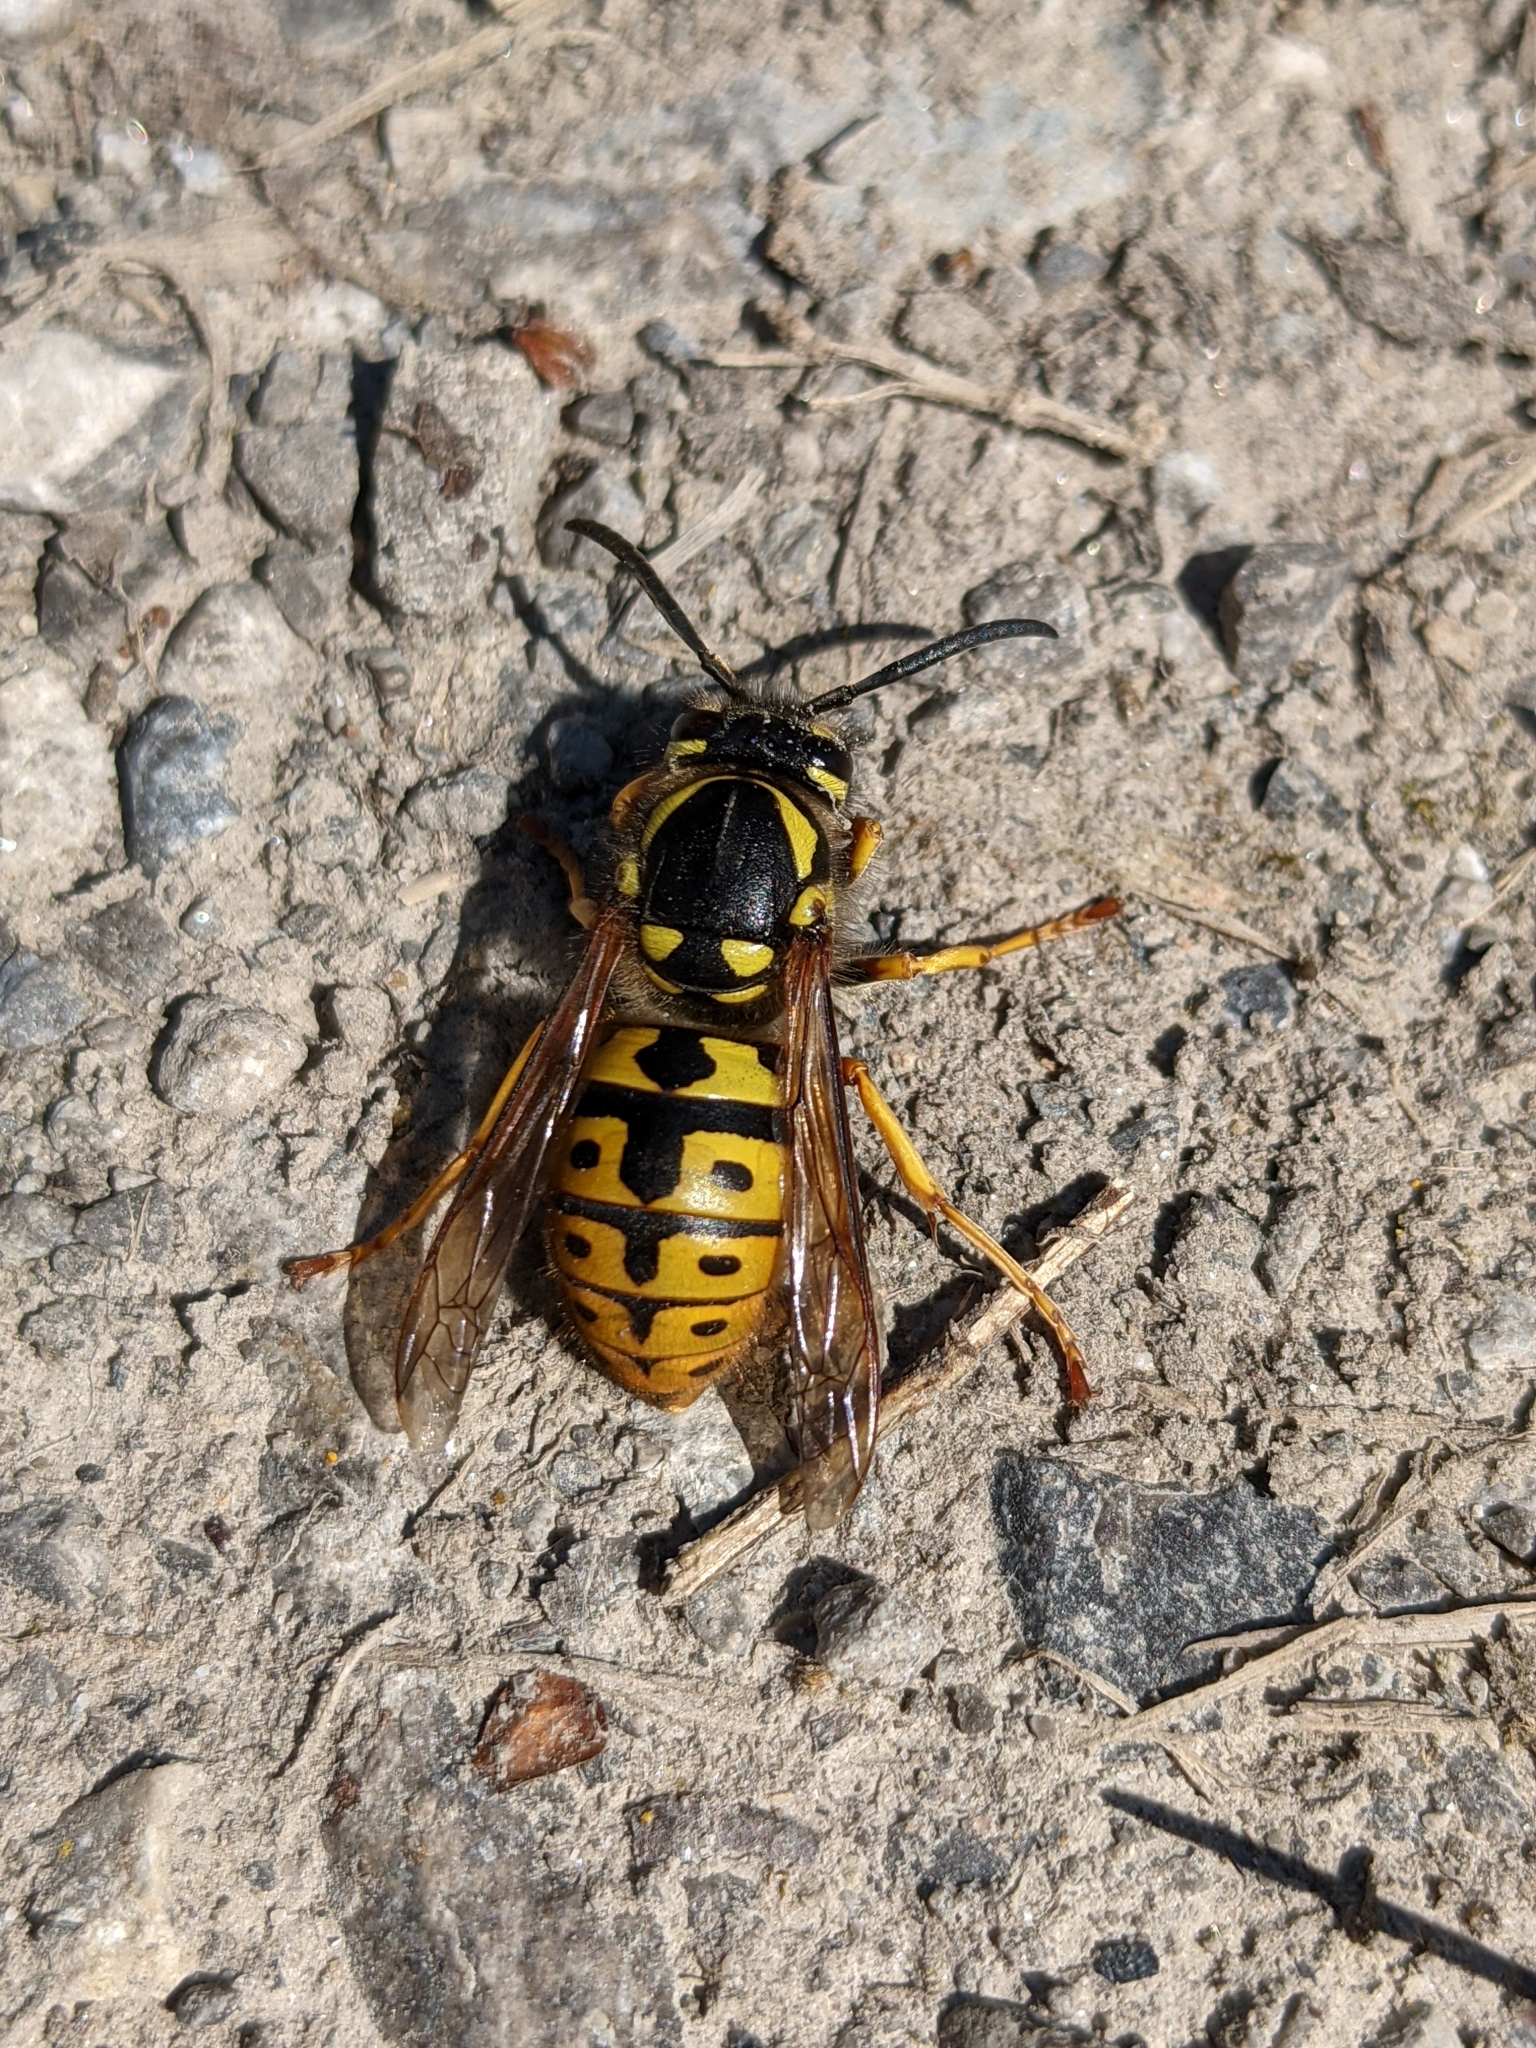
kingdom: Animalia
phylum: Arthropoda
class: Insecta
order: Hymenoptera
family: Vespidae
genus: Vespula
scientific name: Vespula germanica
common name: German wasp
